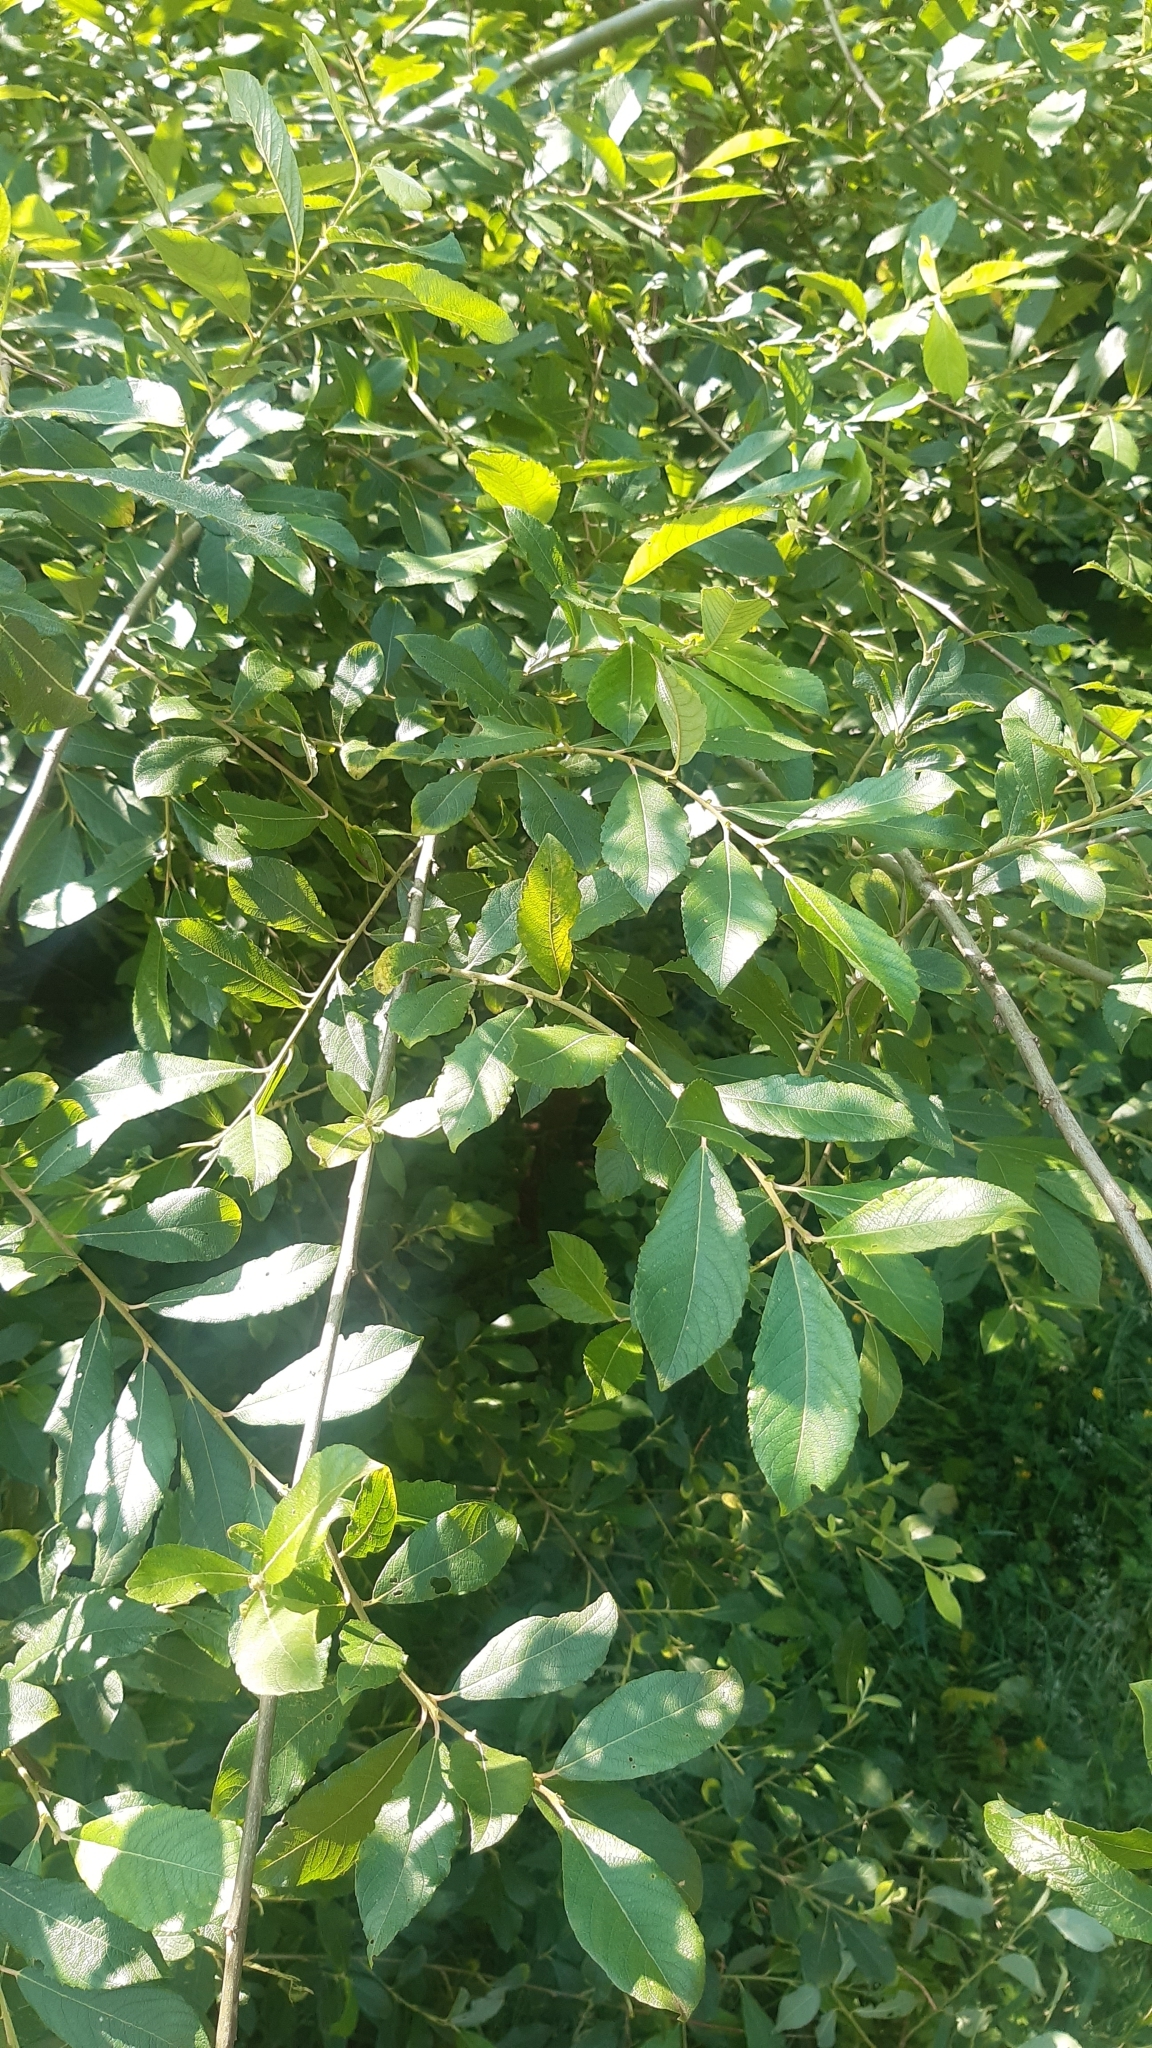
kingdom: Plantae
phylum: Tracheophyta
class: Magnoliopsida
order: Malpighiales
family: Salicaceae
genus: Salix
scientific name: Salix atrocinerea
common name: Rusty willow
